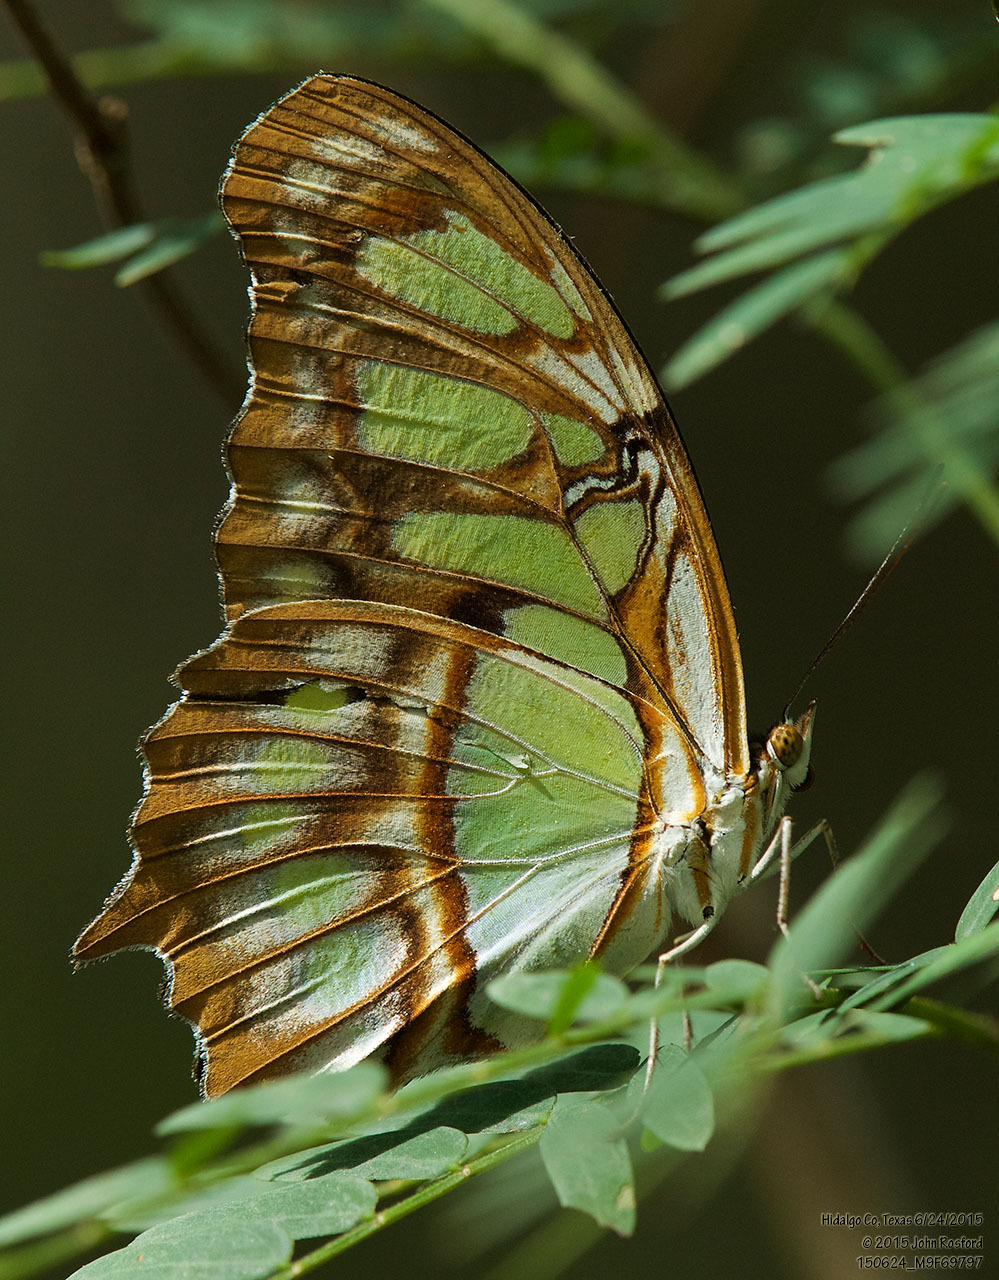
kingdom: Animalia
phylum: Arthropoda
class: Insecta
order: Lepidoptera
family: Nymphalidae
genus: Siproeta
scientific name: Siproeta stelenes
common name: Malachite
